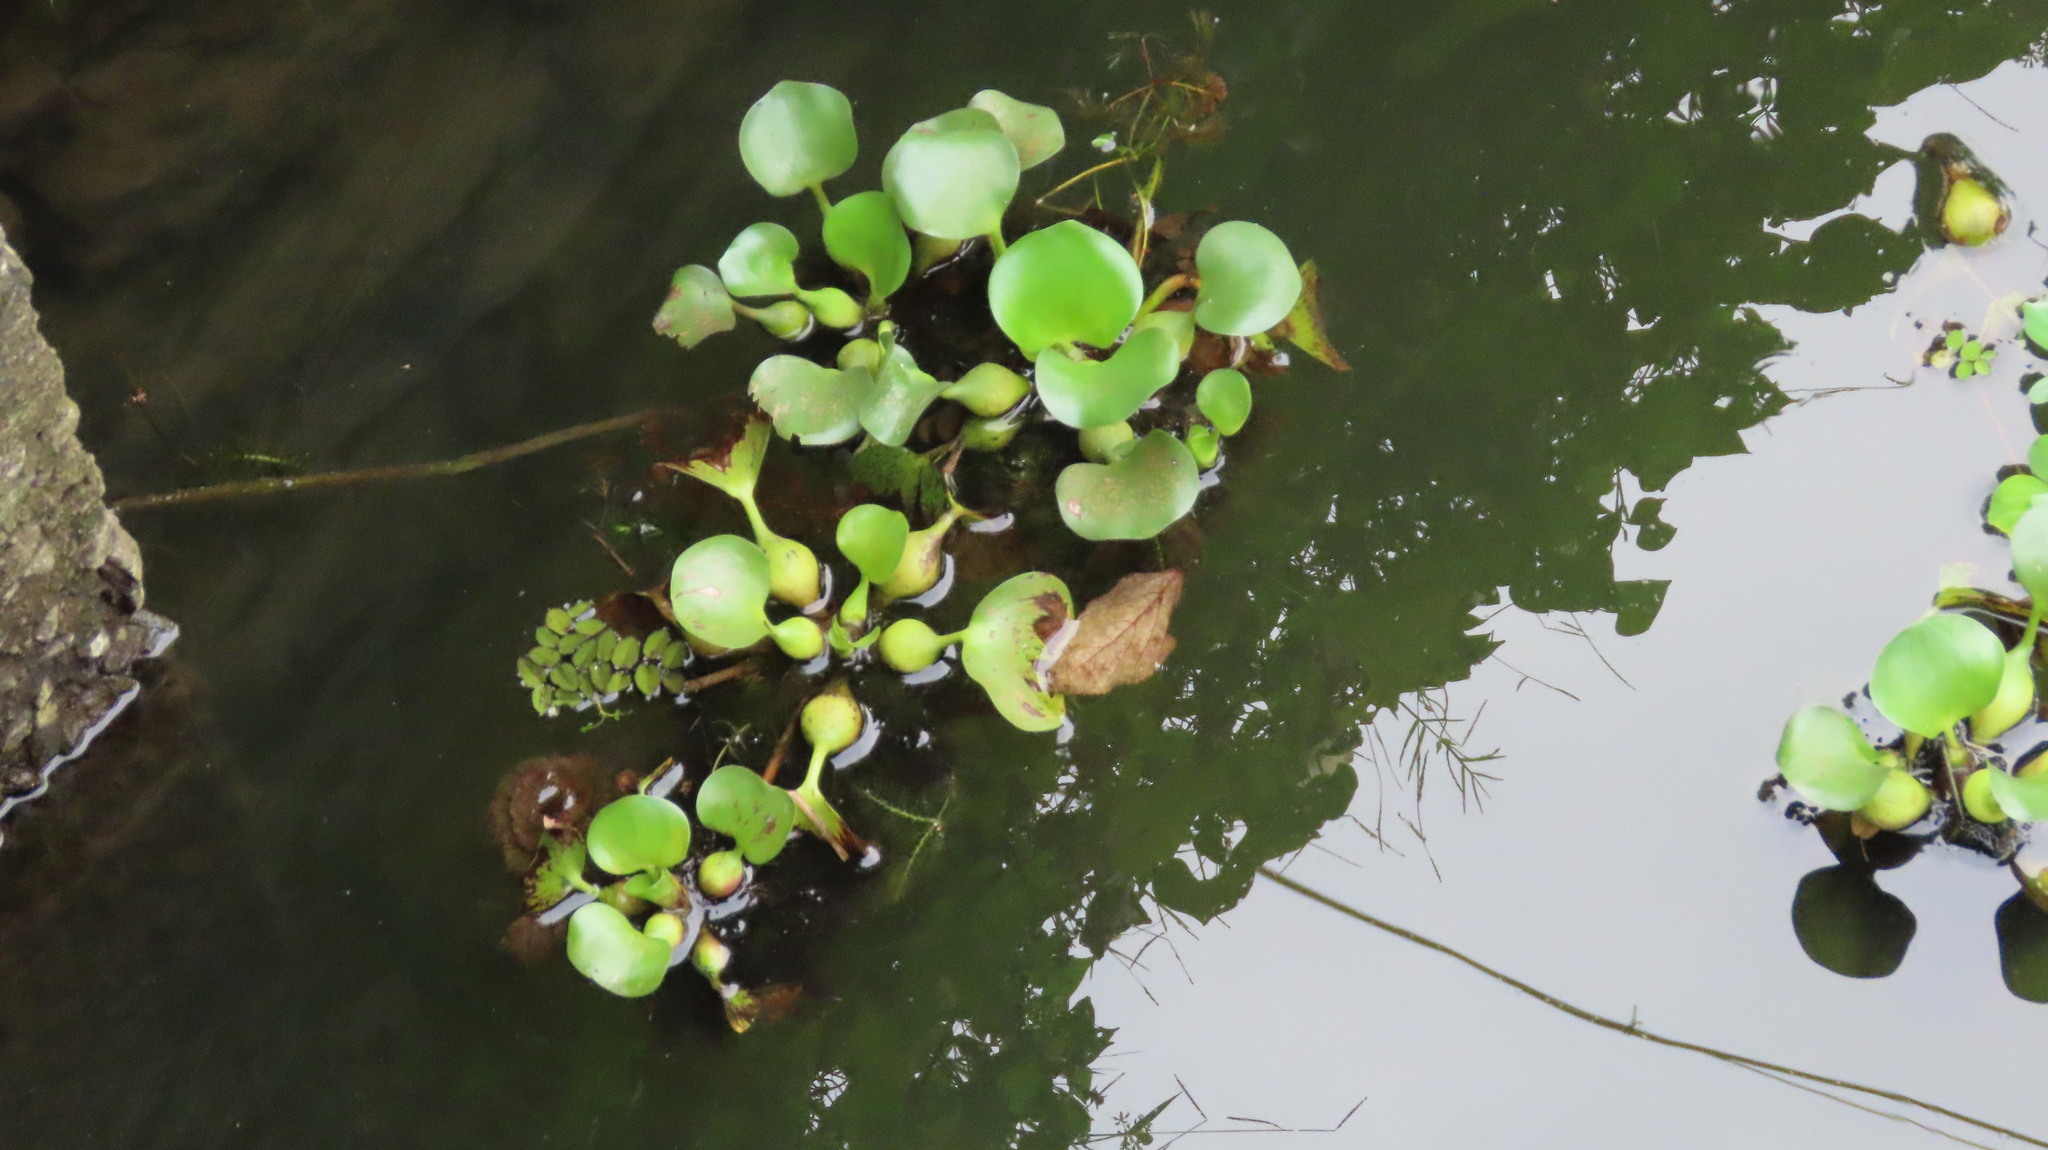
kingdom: Plantae
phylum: Tracheophyta
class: Liliopsida
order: Commelinales
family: Pontederiaceae
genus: Pontederia
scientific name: Pontederia crassipes
